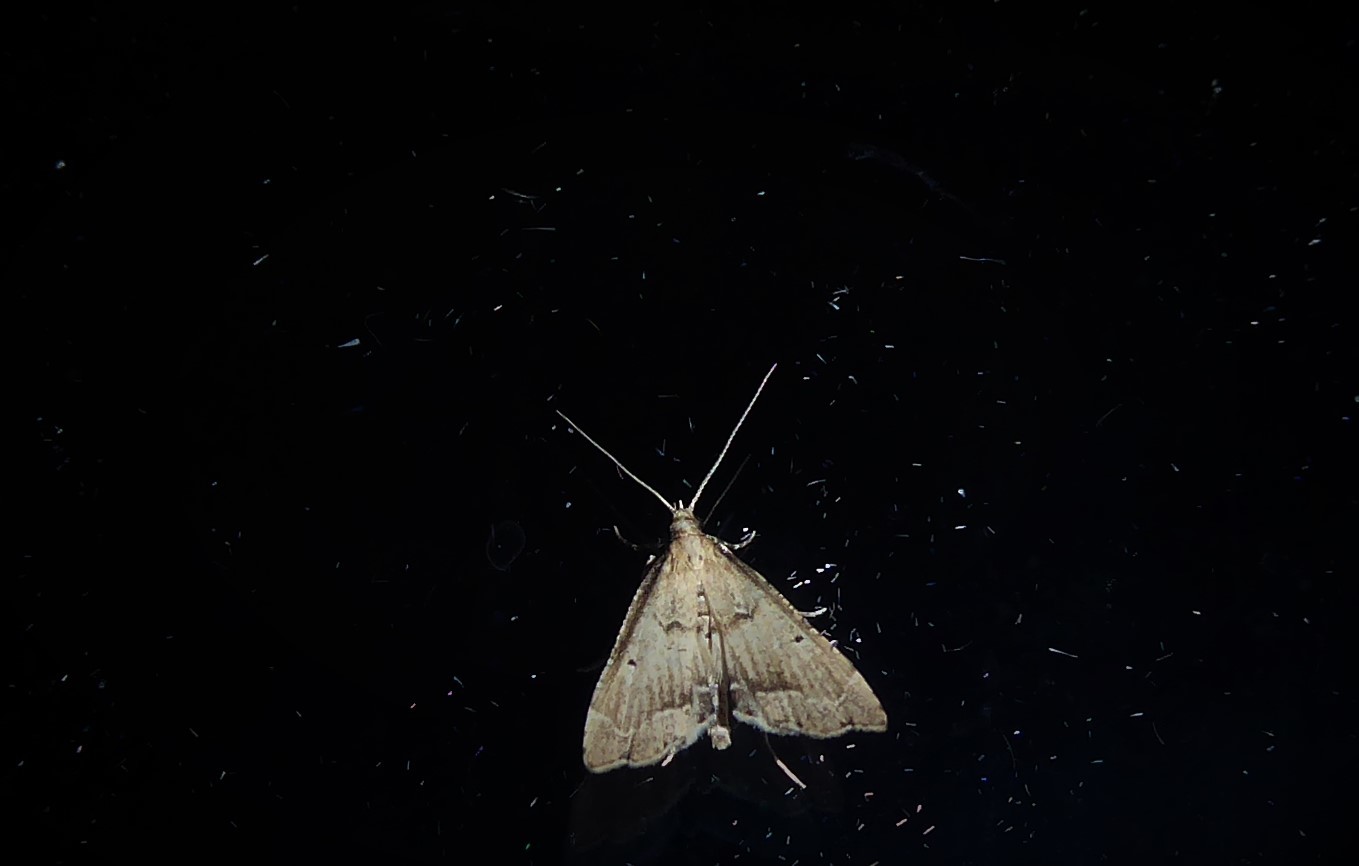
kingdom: Animalia
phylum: Arthropoda
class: Insecta
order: Lepidoptera
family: Crambidae
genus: Diplopseustis
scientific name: Diplopseustis perieresalis
